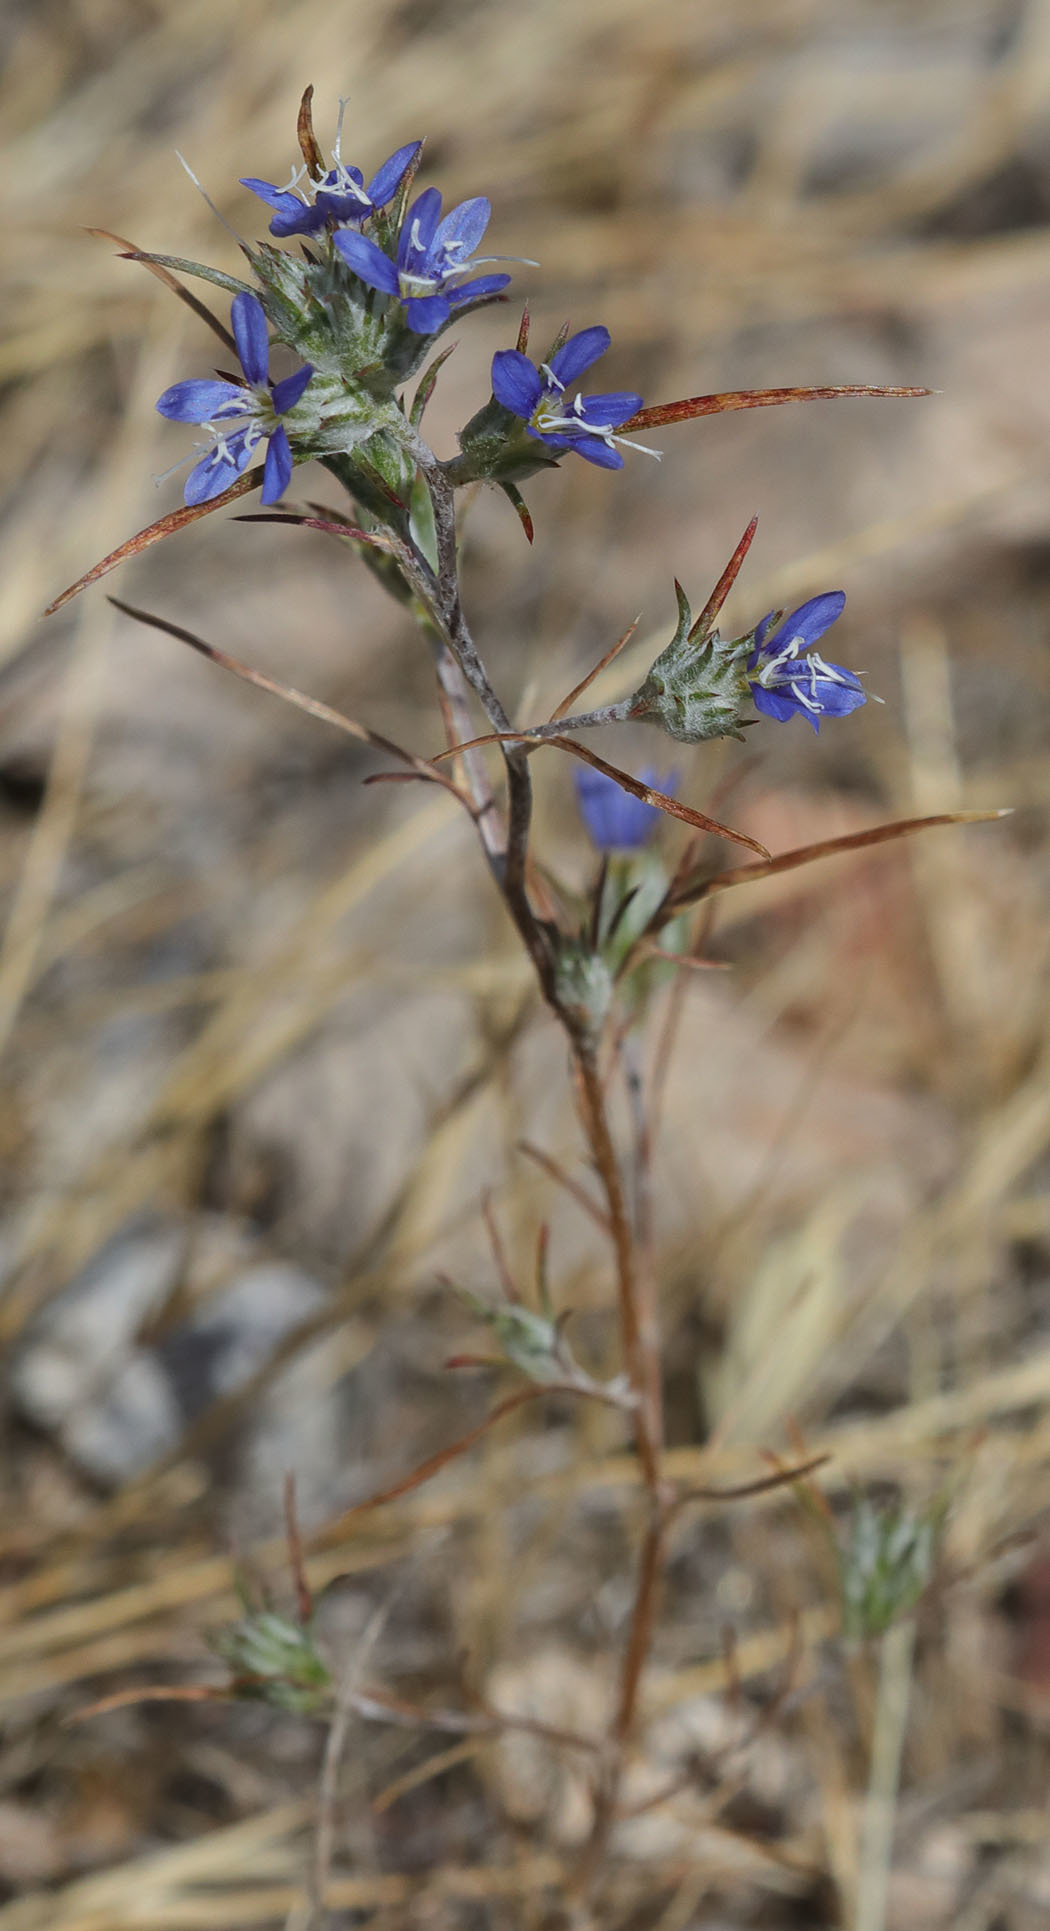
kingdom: Plantae
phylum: Tracheophyta
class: Magnoliopsida
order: Ericales
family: Polemoniaceae
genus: Eriastrum
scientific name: Eriastrum virgatum
